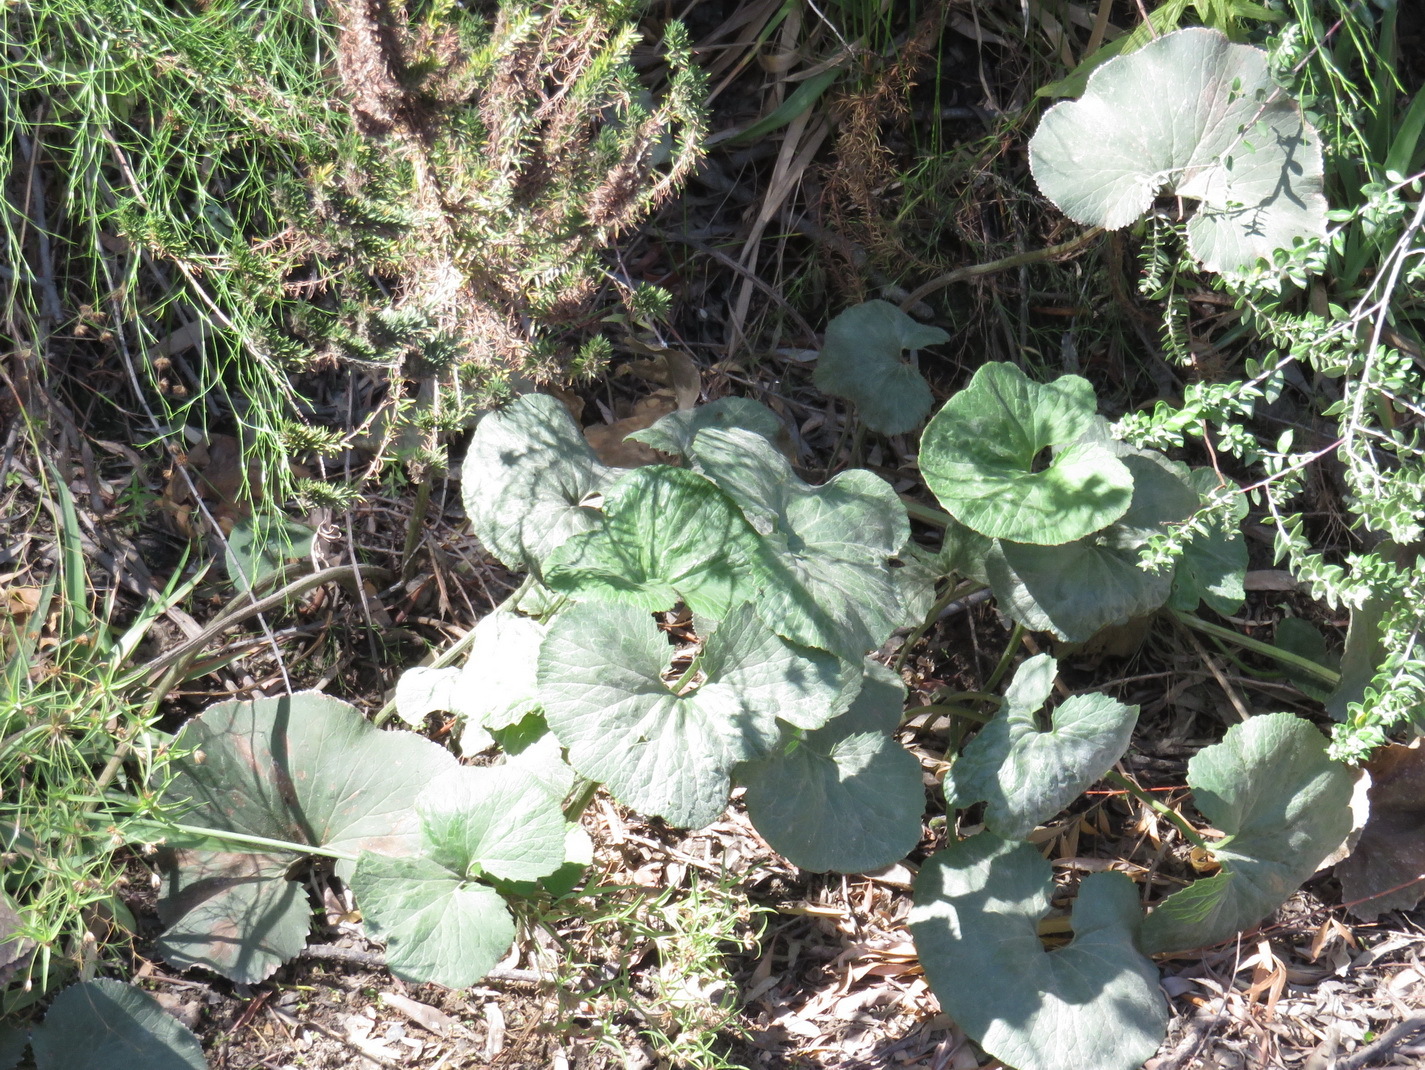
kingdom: Plantae
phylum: Tracheophyta
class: Magnoliopsida
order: Gunnerales
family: Gunneraceae
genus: Gunnera
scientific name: Gunnera perpensa
